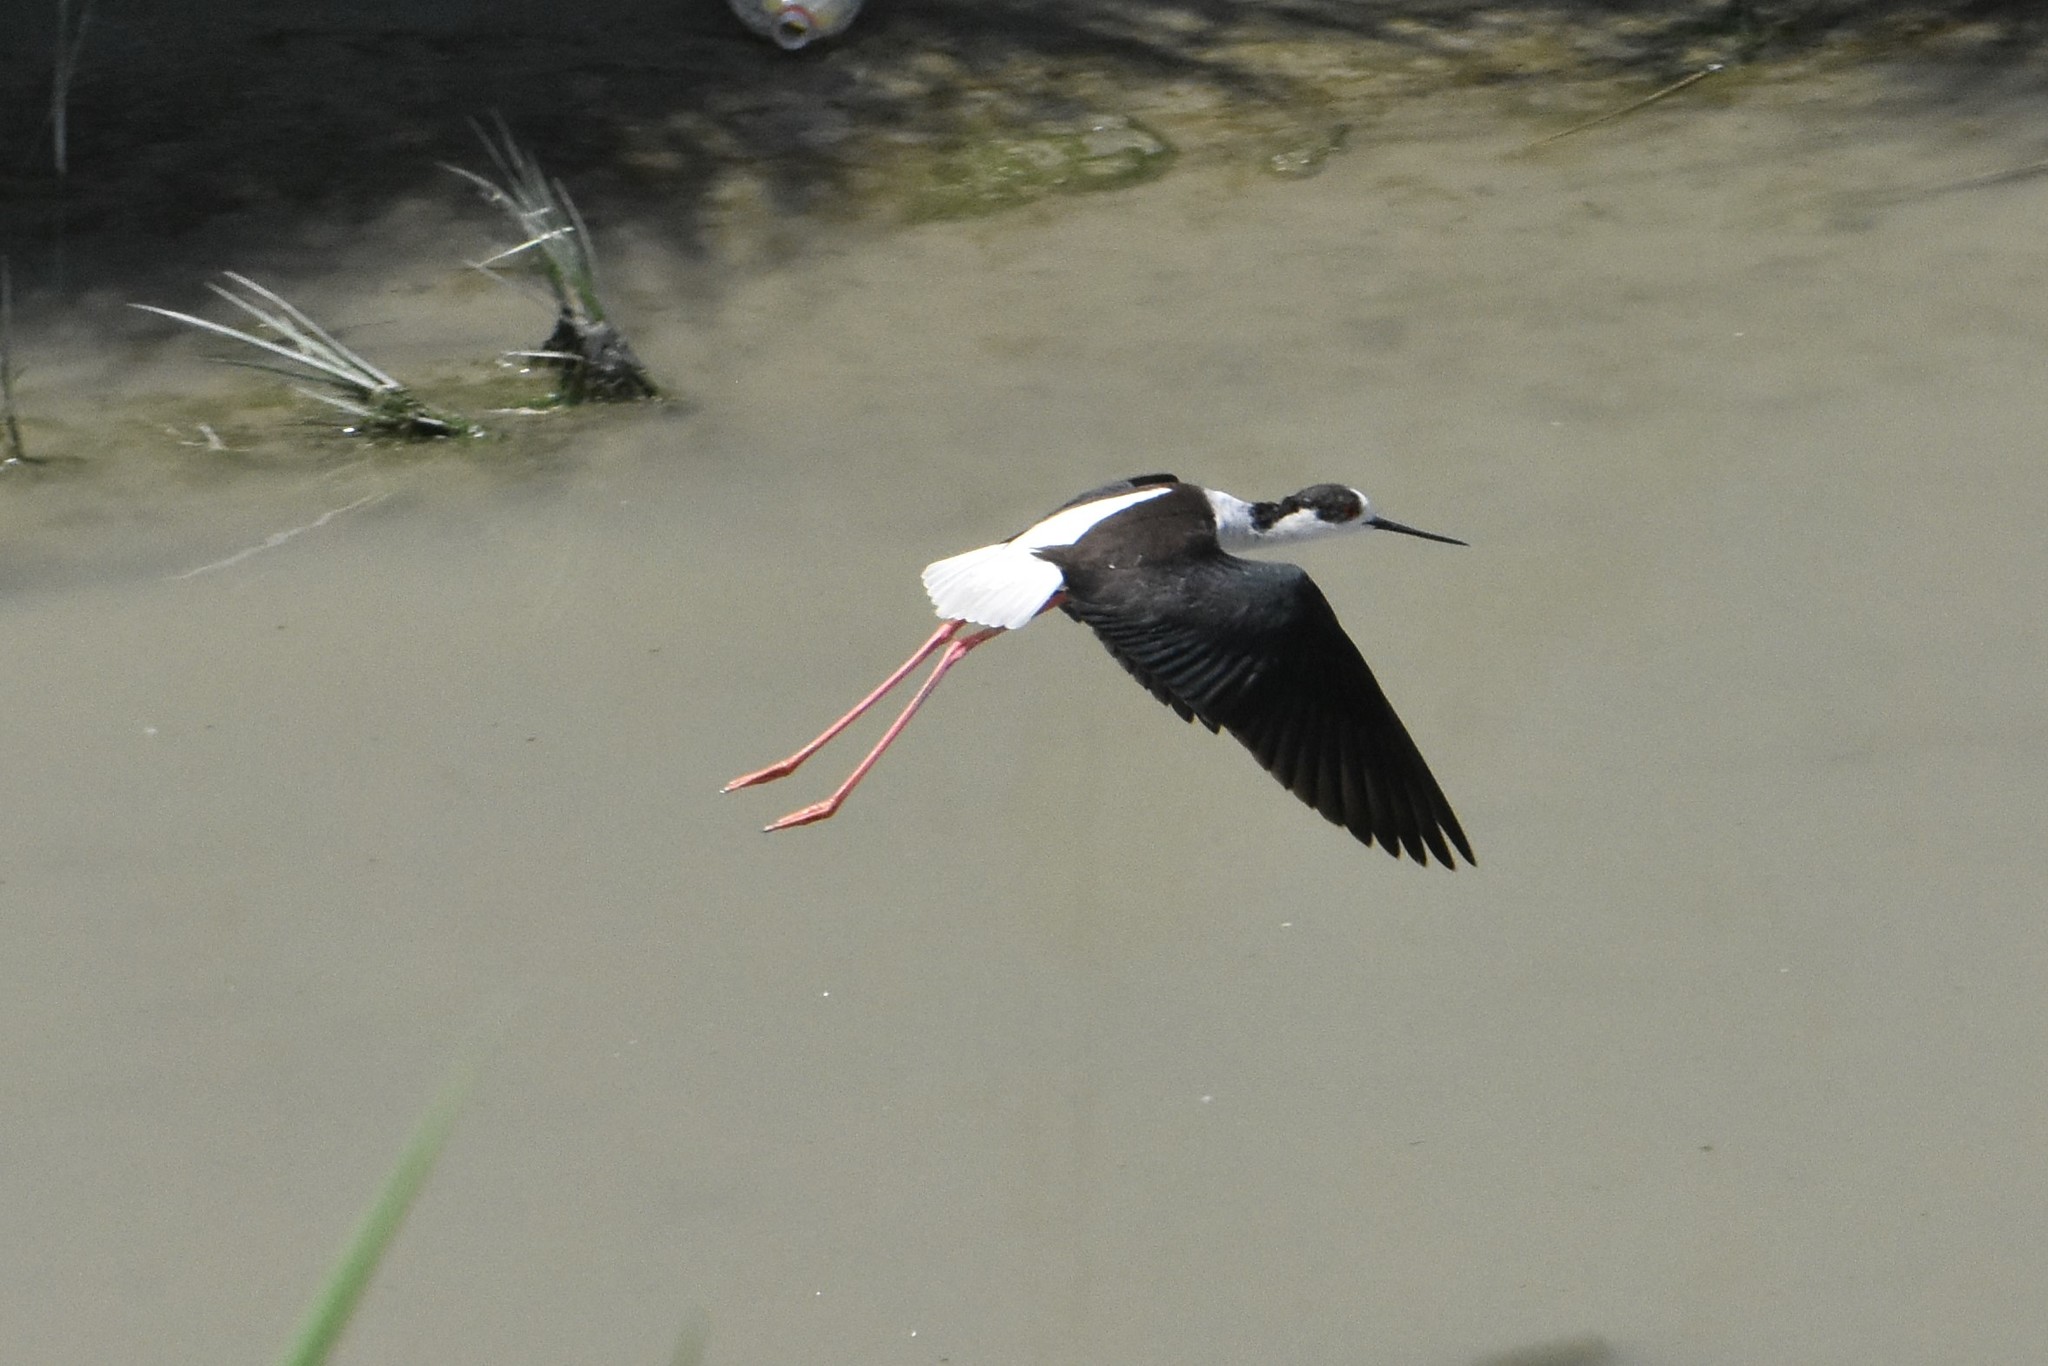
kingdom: Animalia
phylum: Chordata
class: Aves
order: Charadriiformes
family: Recurvirostridae
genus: Himantopus
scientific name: Himantopus himantopus
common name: Black-winged stilt
